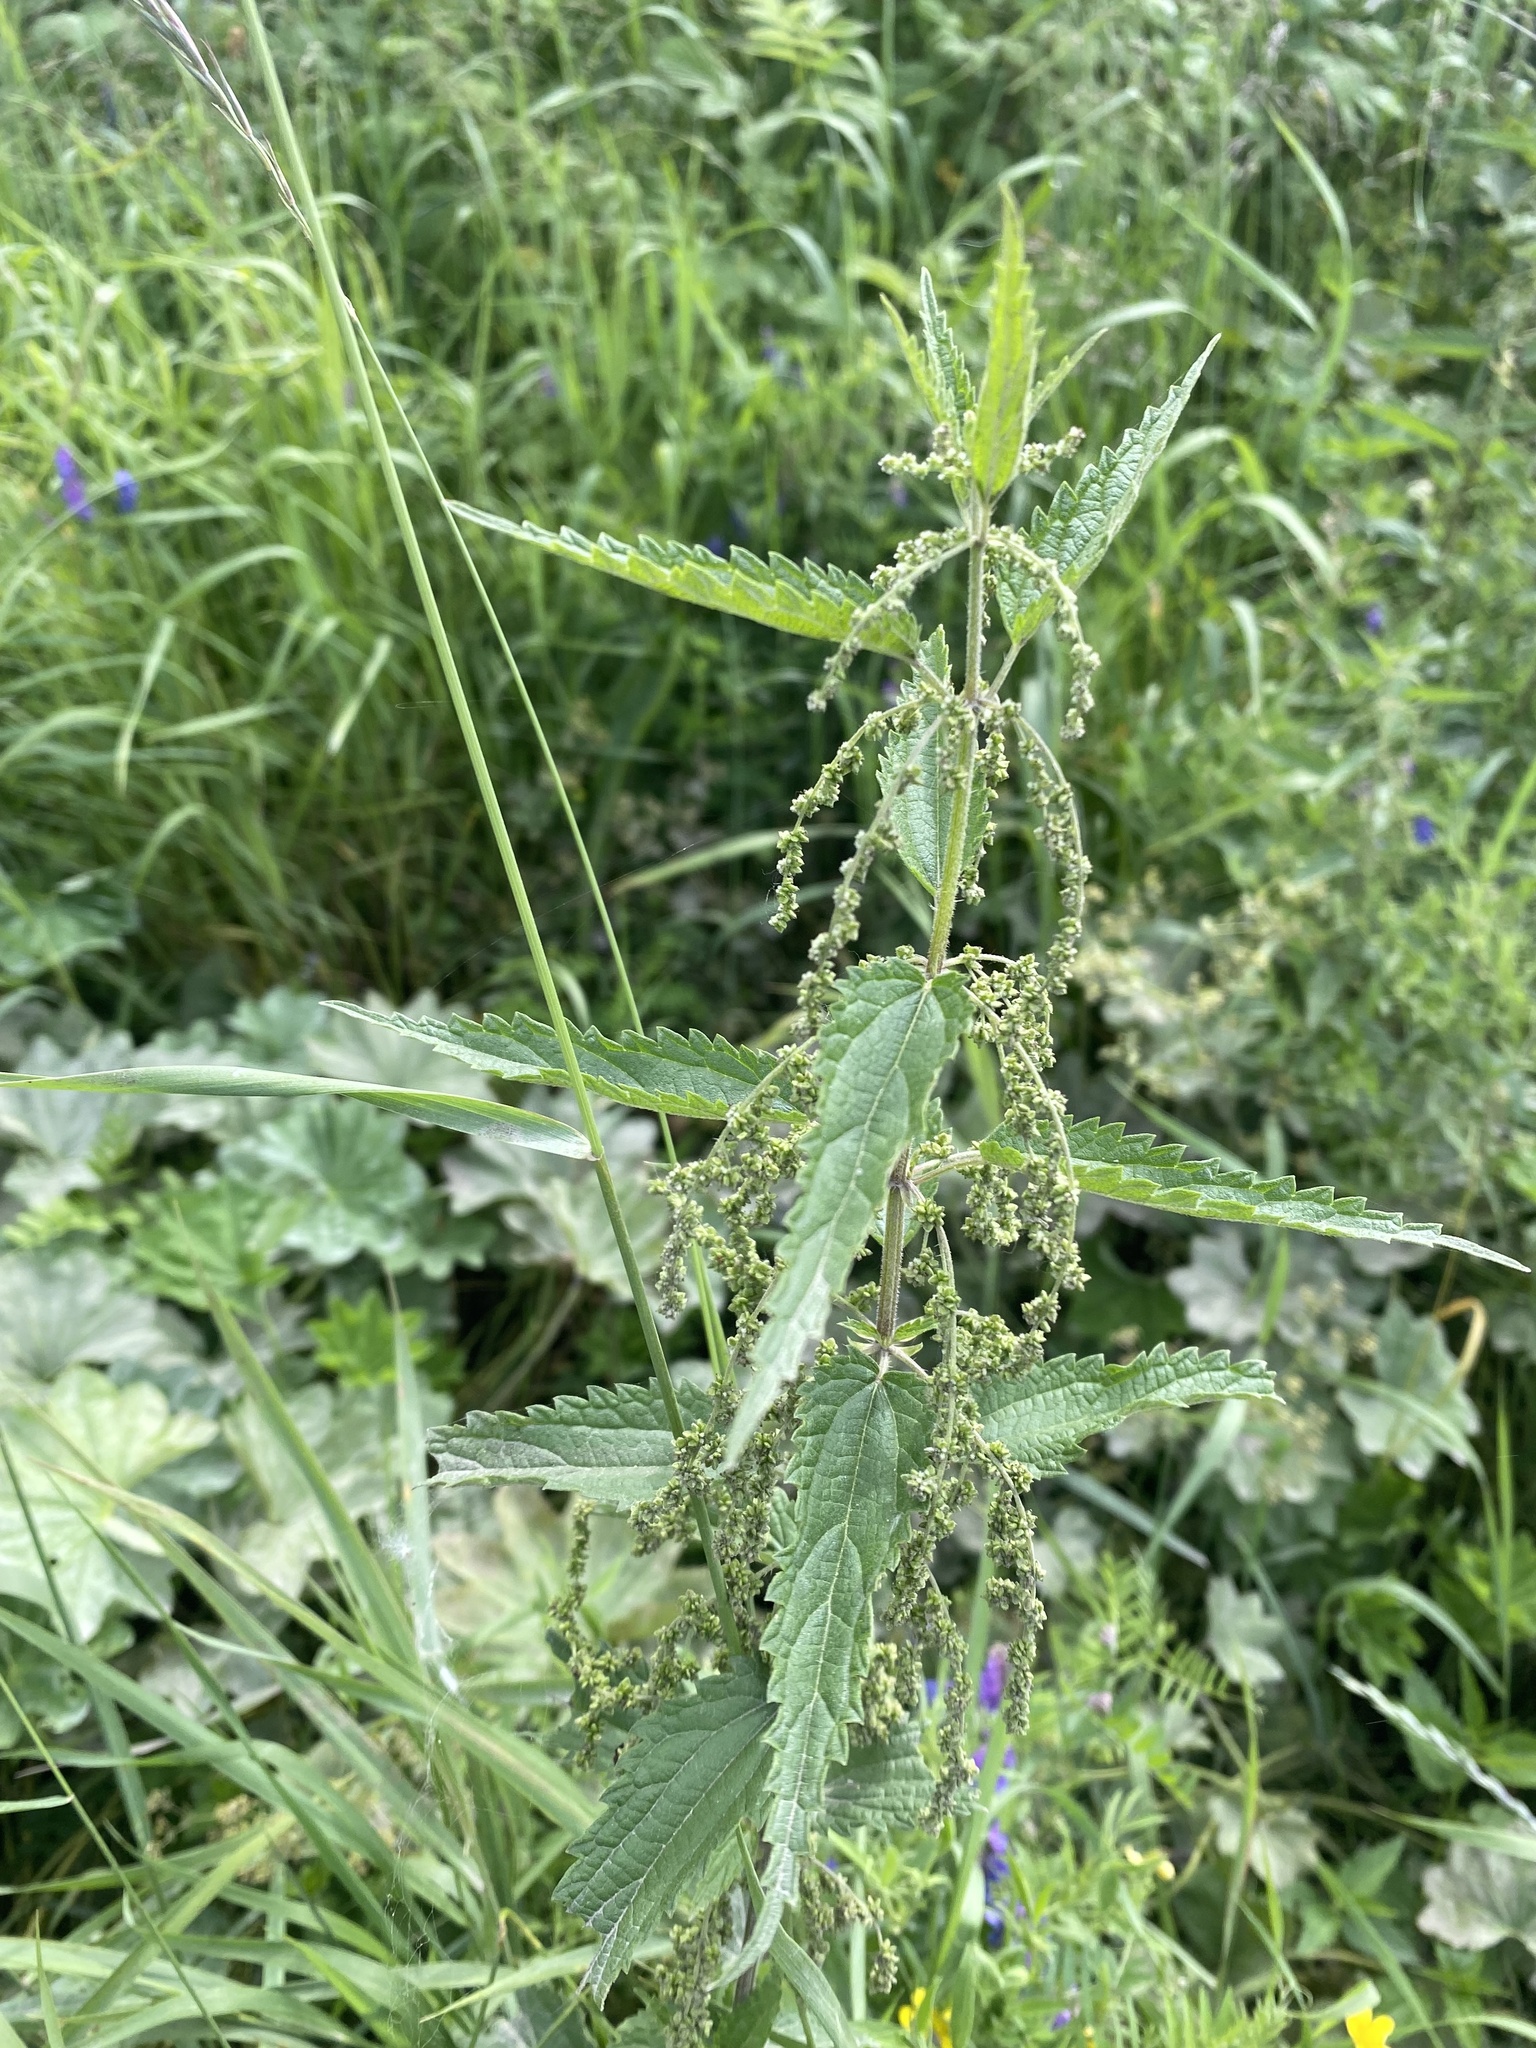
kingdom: Plantae
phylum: Tracheophyta
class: Magnoliopsida
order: Rosales
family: Urticaceae
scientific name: Urticaceae
